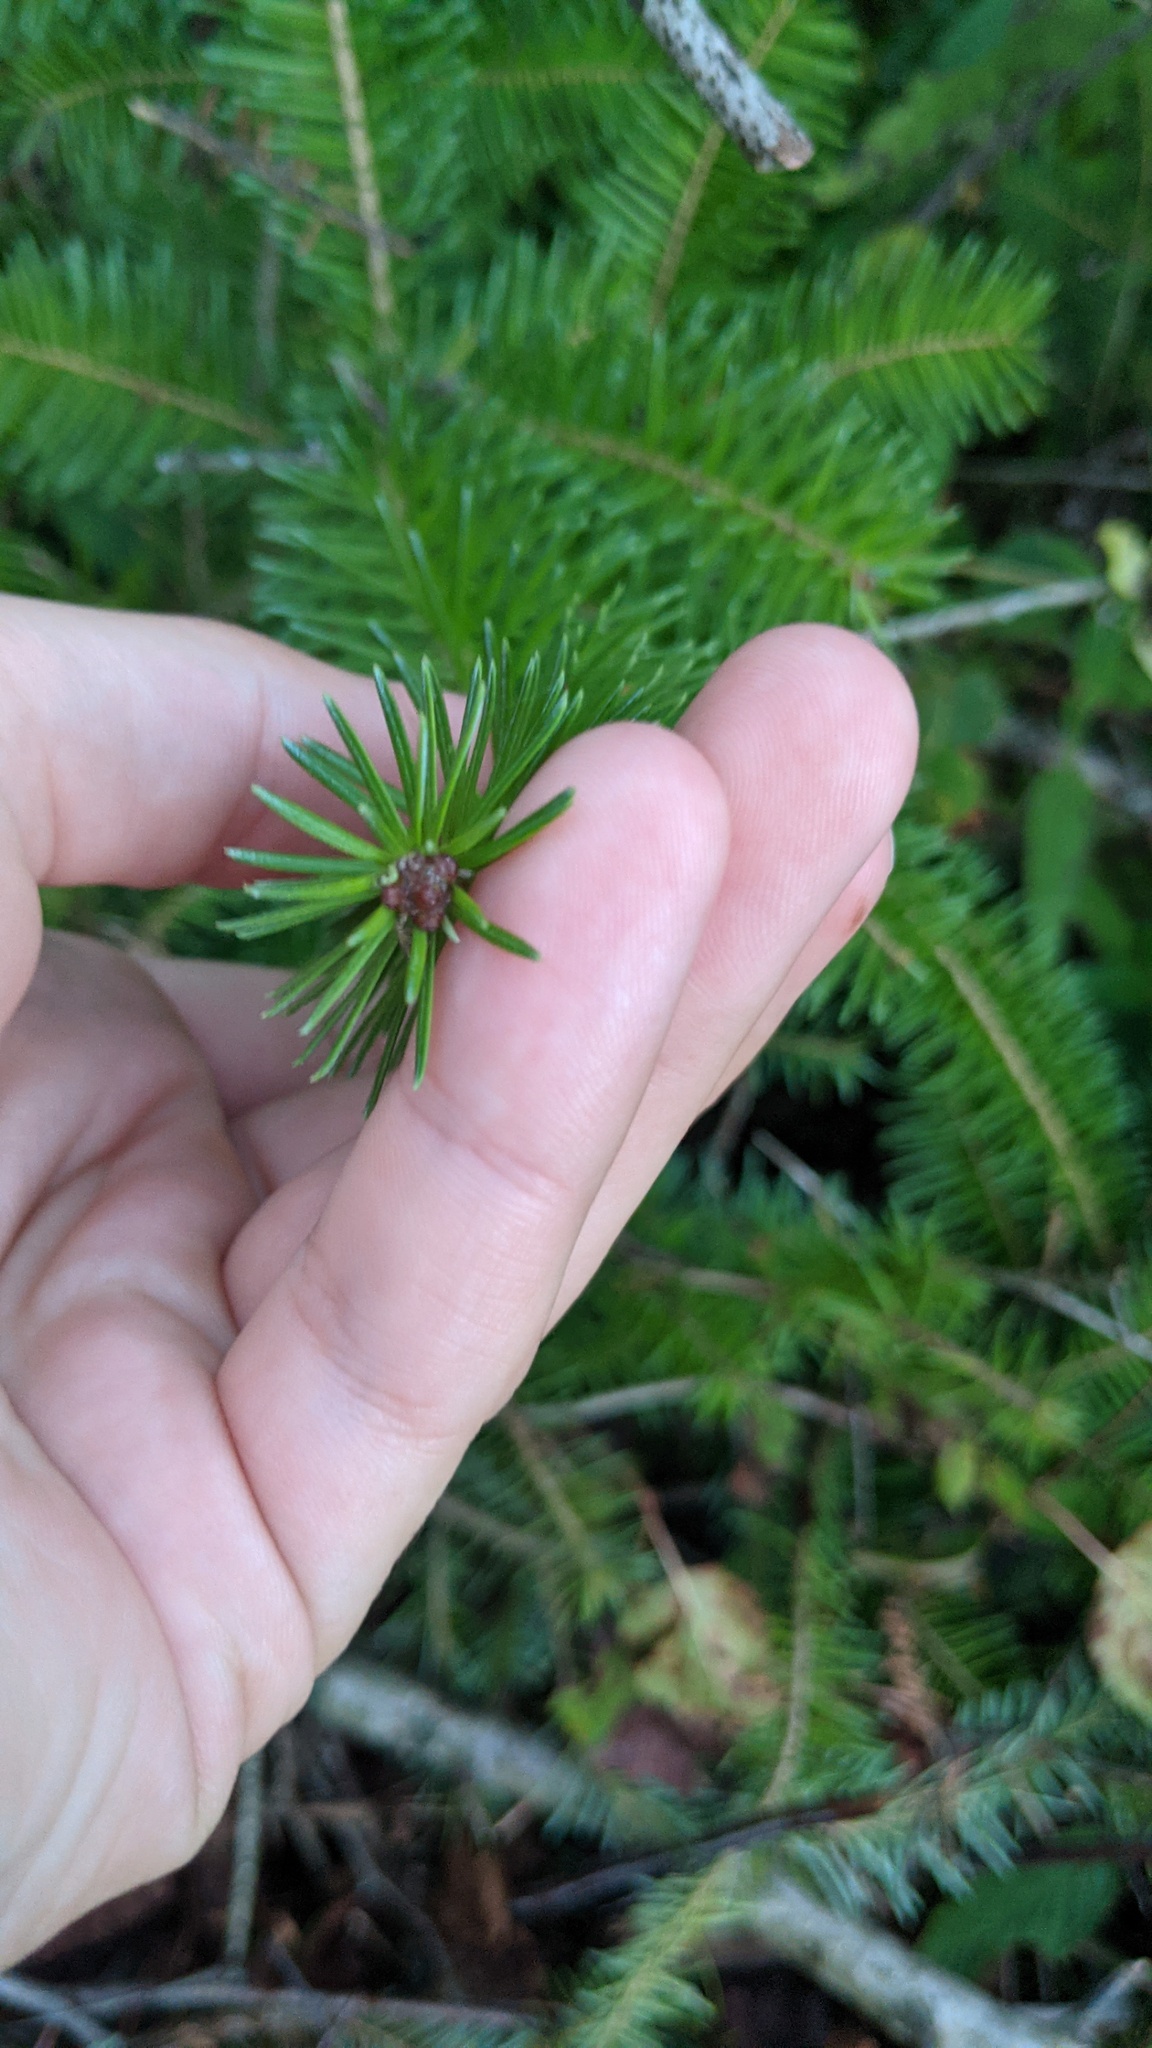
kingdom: Plantae
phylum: Tracheophyta
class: Pinopsida
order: Pinales
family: Pinaceae
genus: Abies
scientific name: Abies balsamea
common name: Balsam fir
